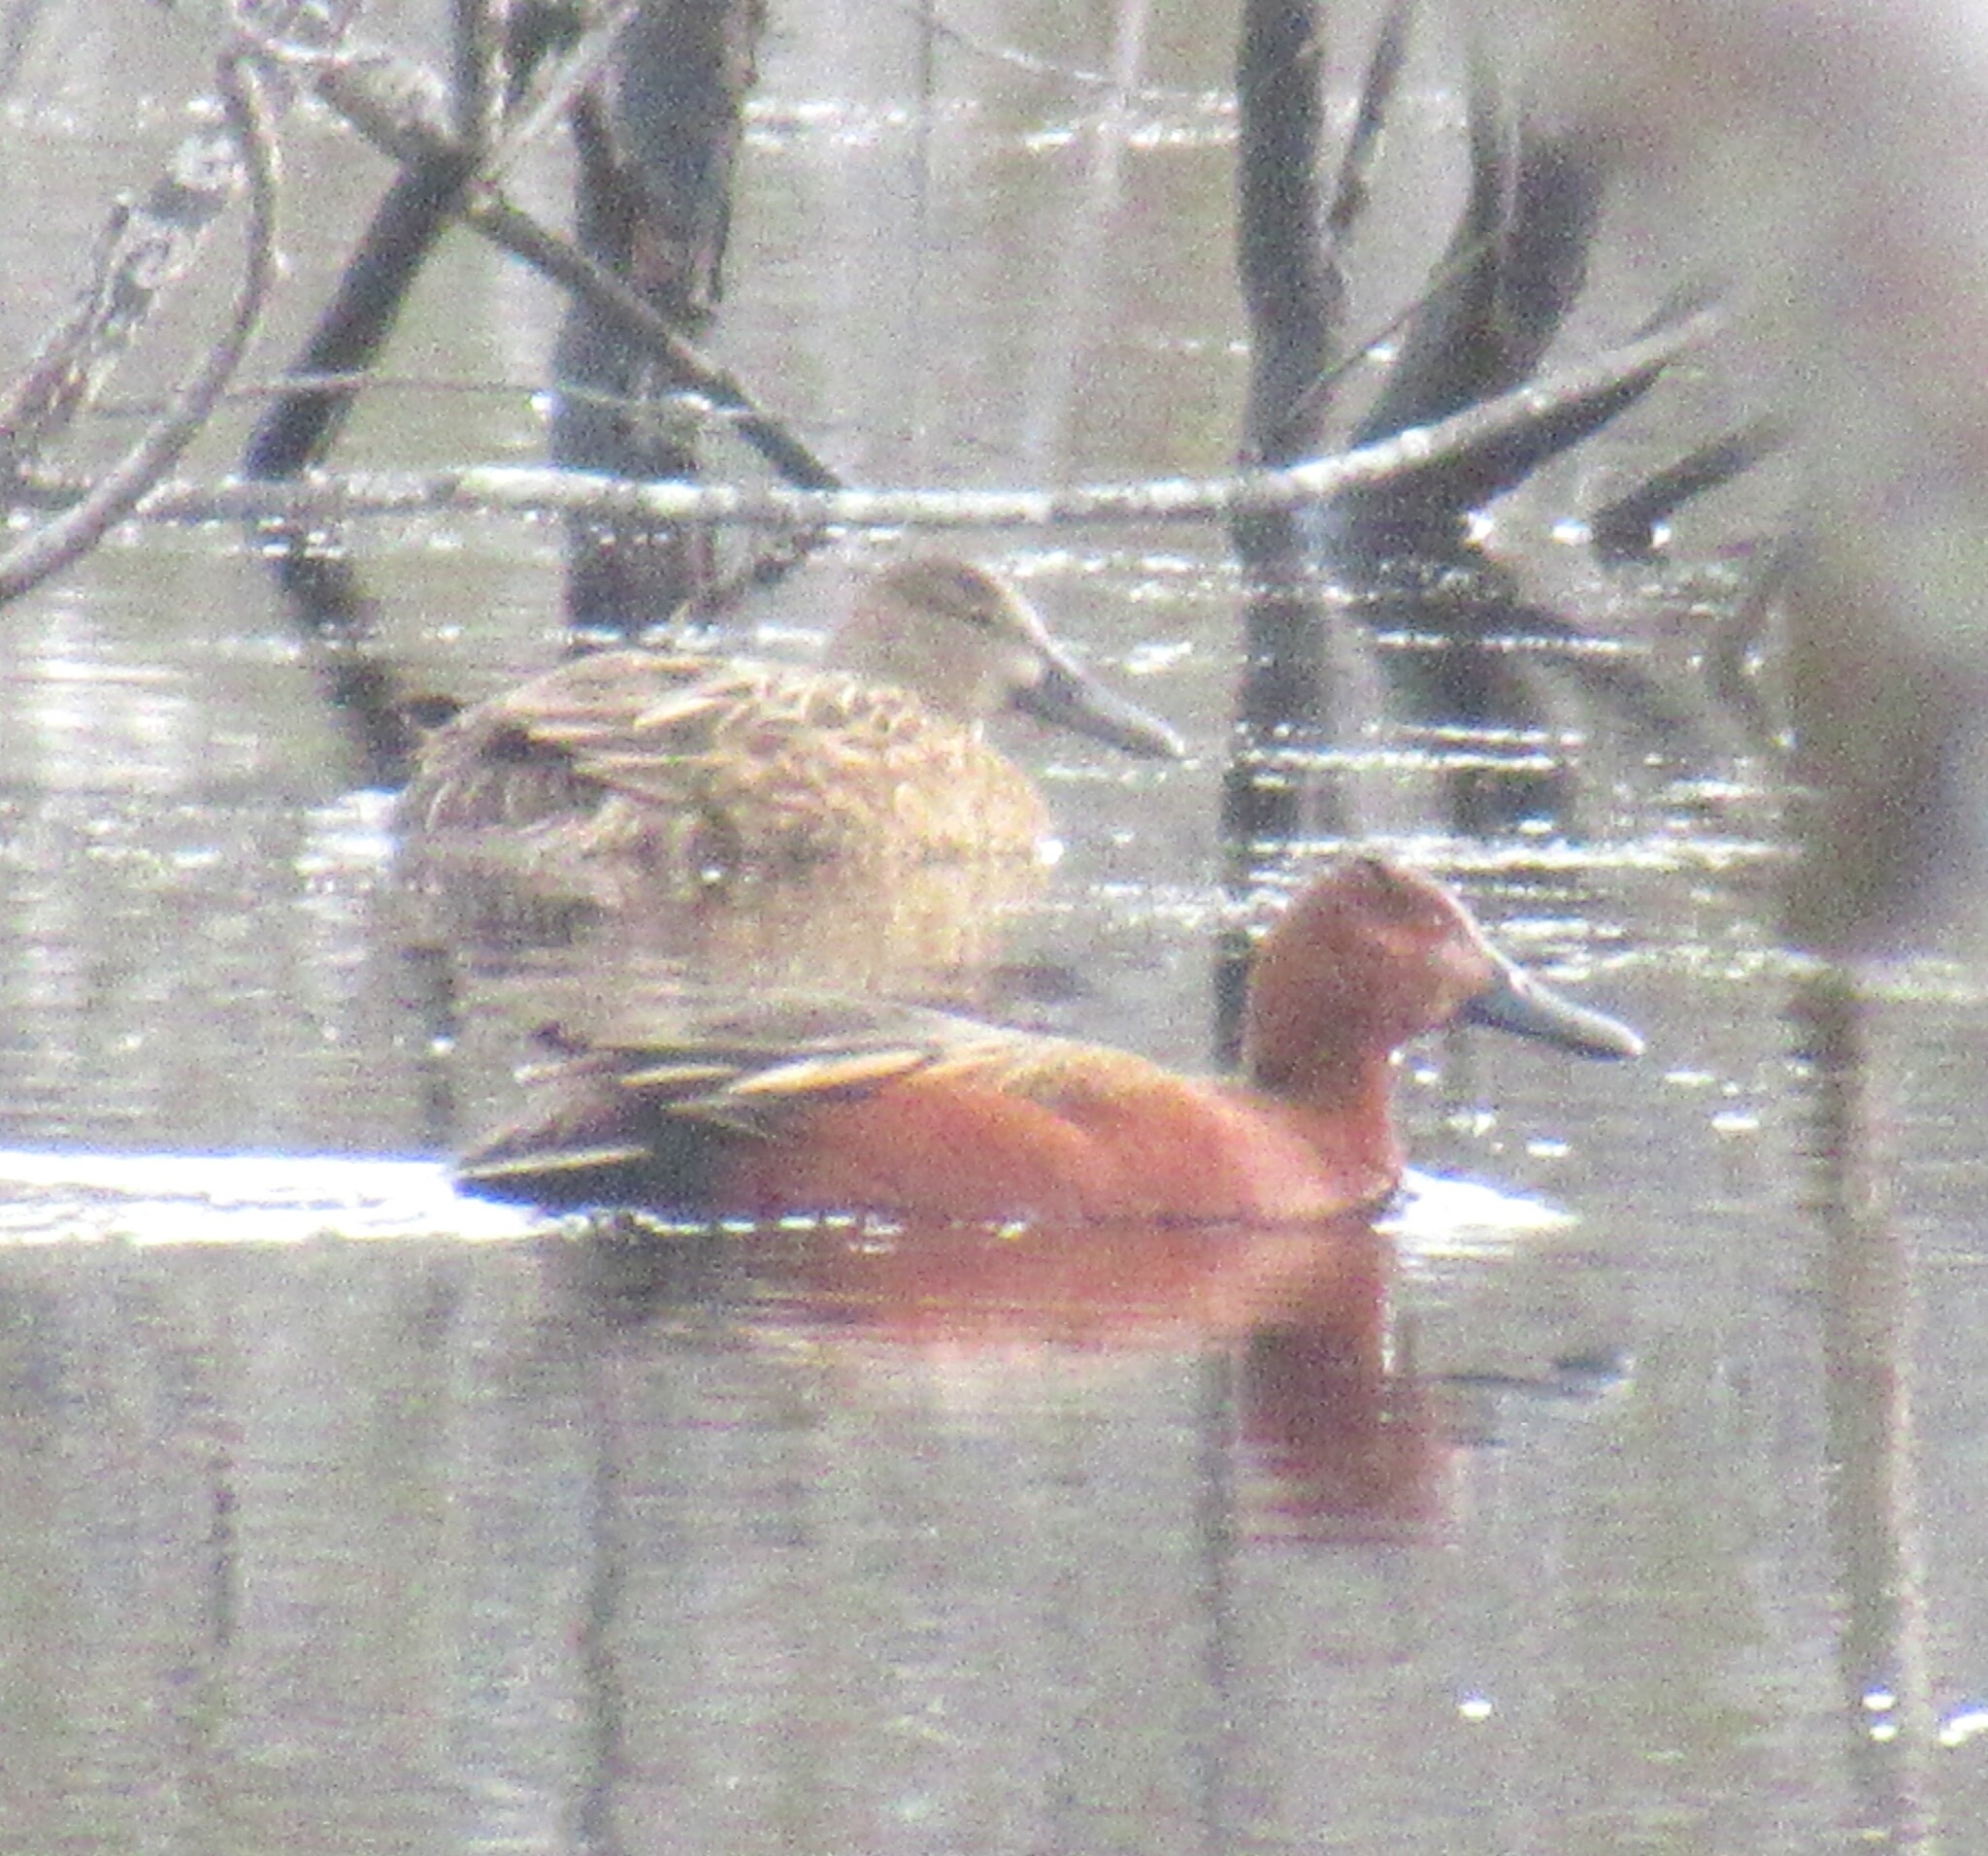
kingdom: Animalia
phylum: Chordata
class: Aves
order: Anseriformes
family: Anatidae
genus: Spatula
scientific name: Spatula cyanoptera
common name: Cinnamon teal
